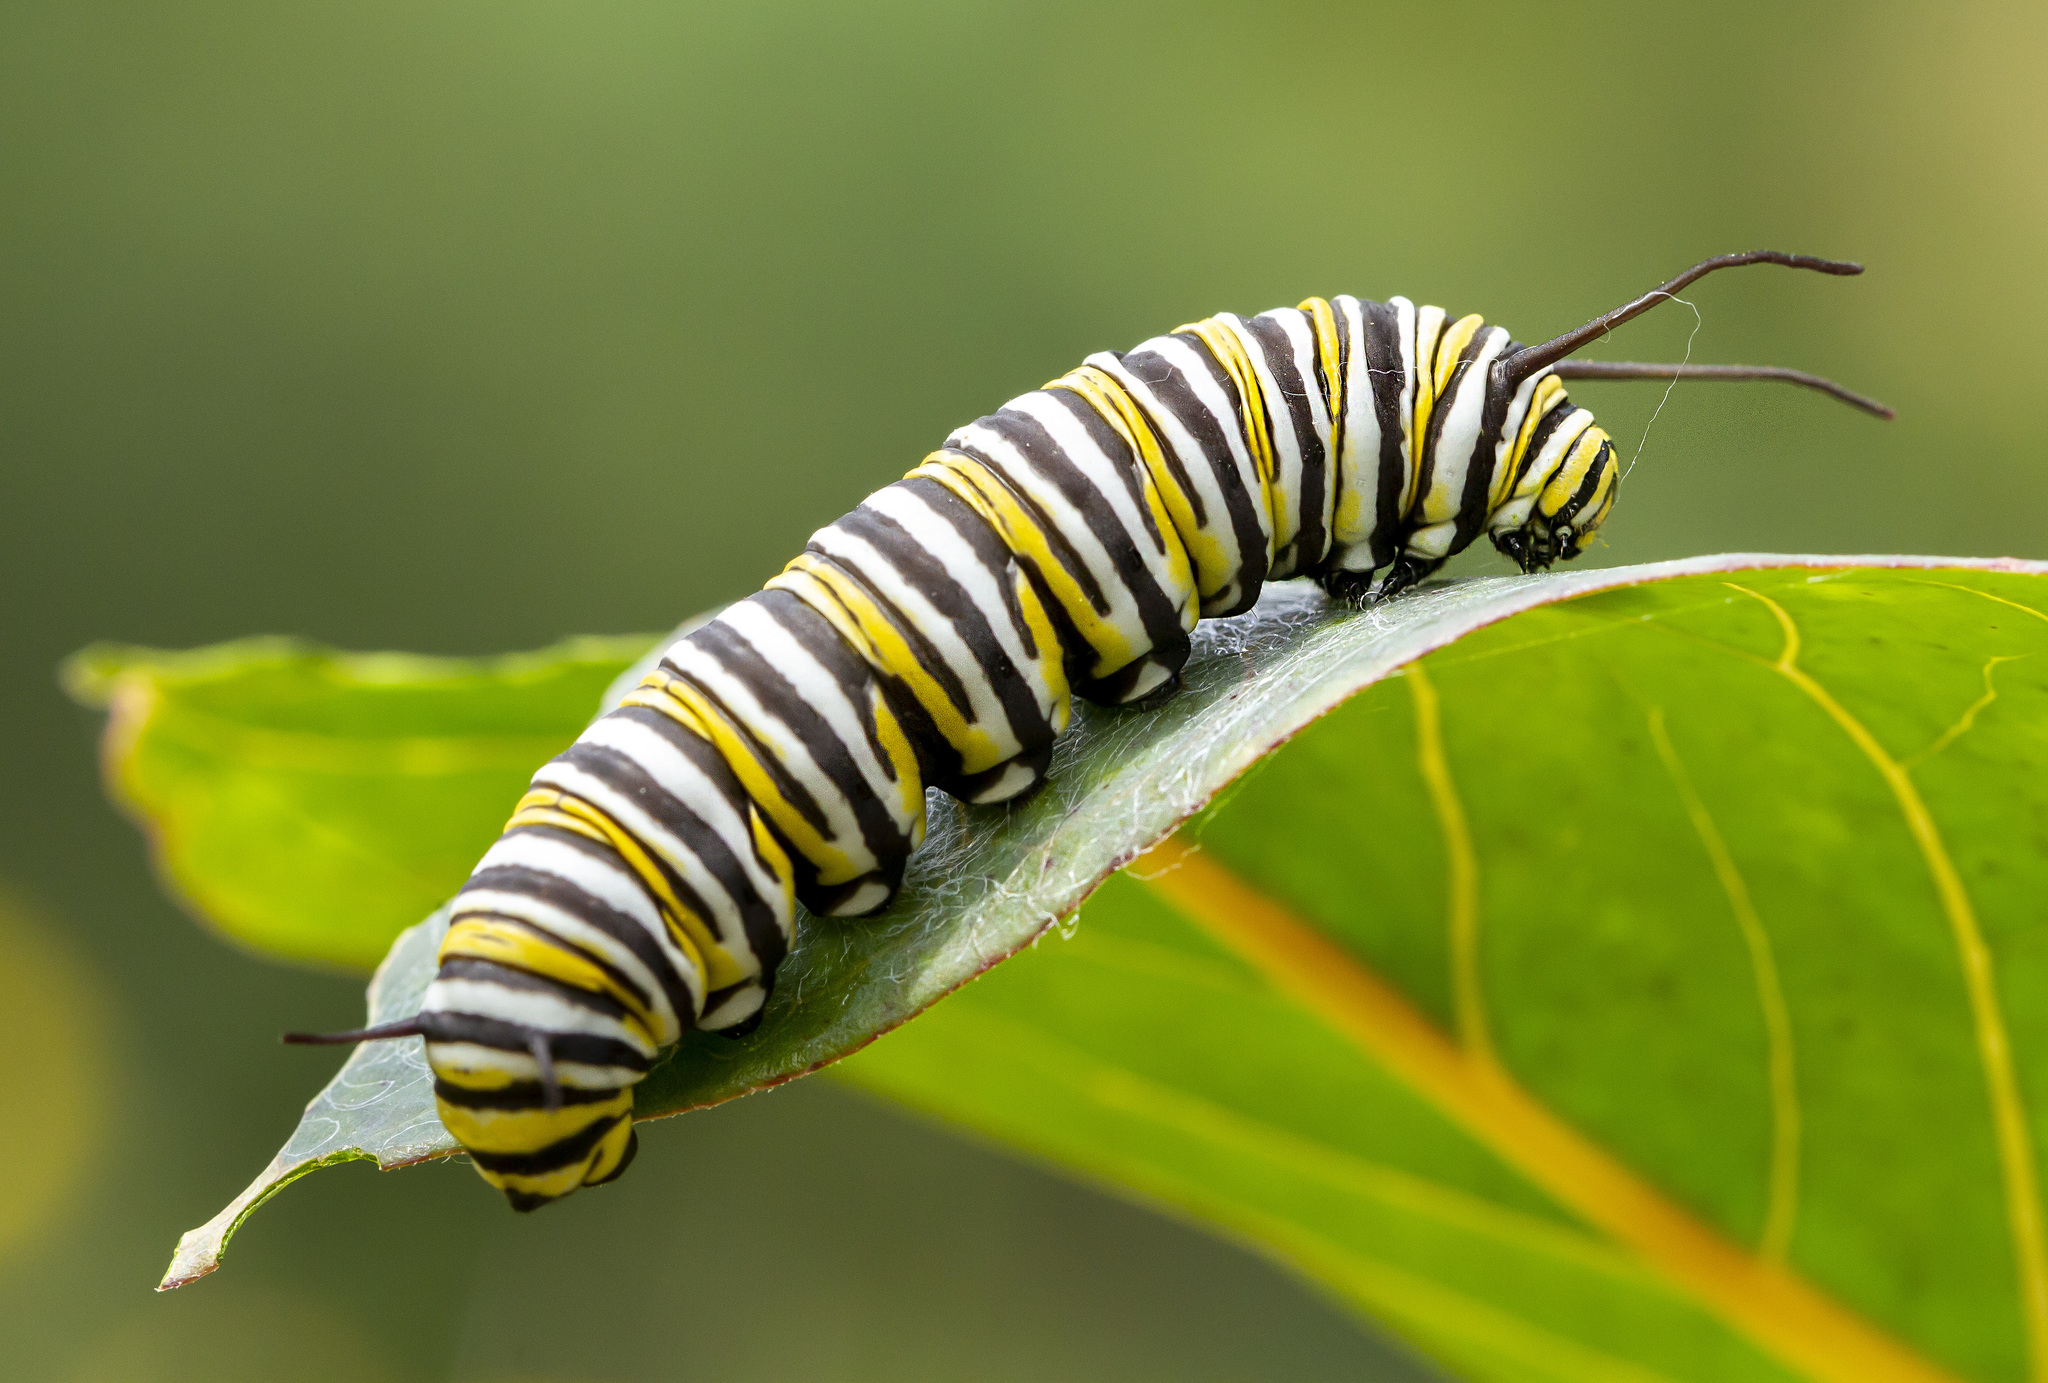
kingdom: Animalia
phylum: Arthropoda
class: Insecta
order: Lepidoptera
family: Nymphalidae
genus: Danaus
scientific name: Danaus plexippus
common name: Monarch
